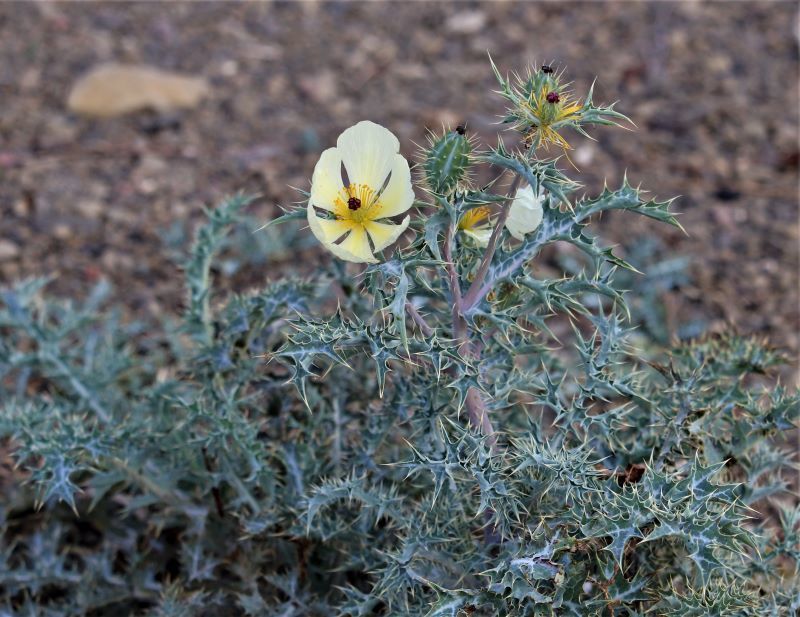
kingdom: Plantae
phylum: Tracheophyta
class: Magnoliopsida
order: Ranunculales
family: Papaveraceae
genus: Argemone
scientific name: Argemone ochroleuca
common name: White-flower mexican-poppy
